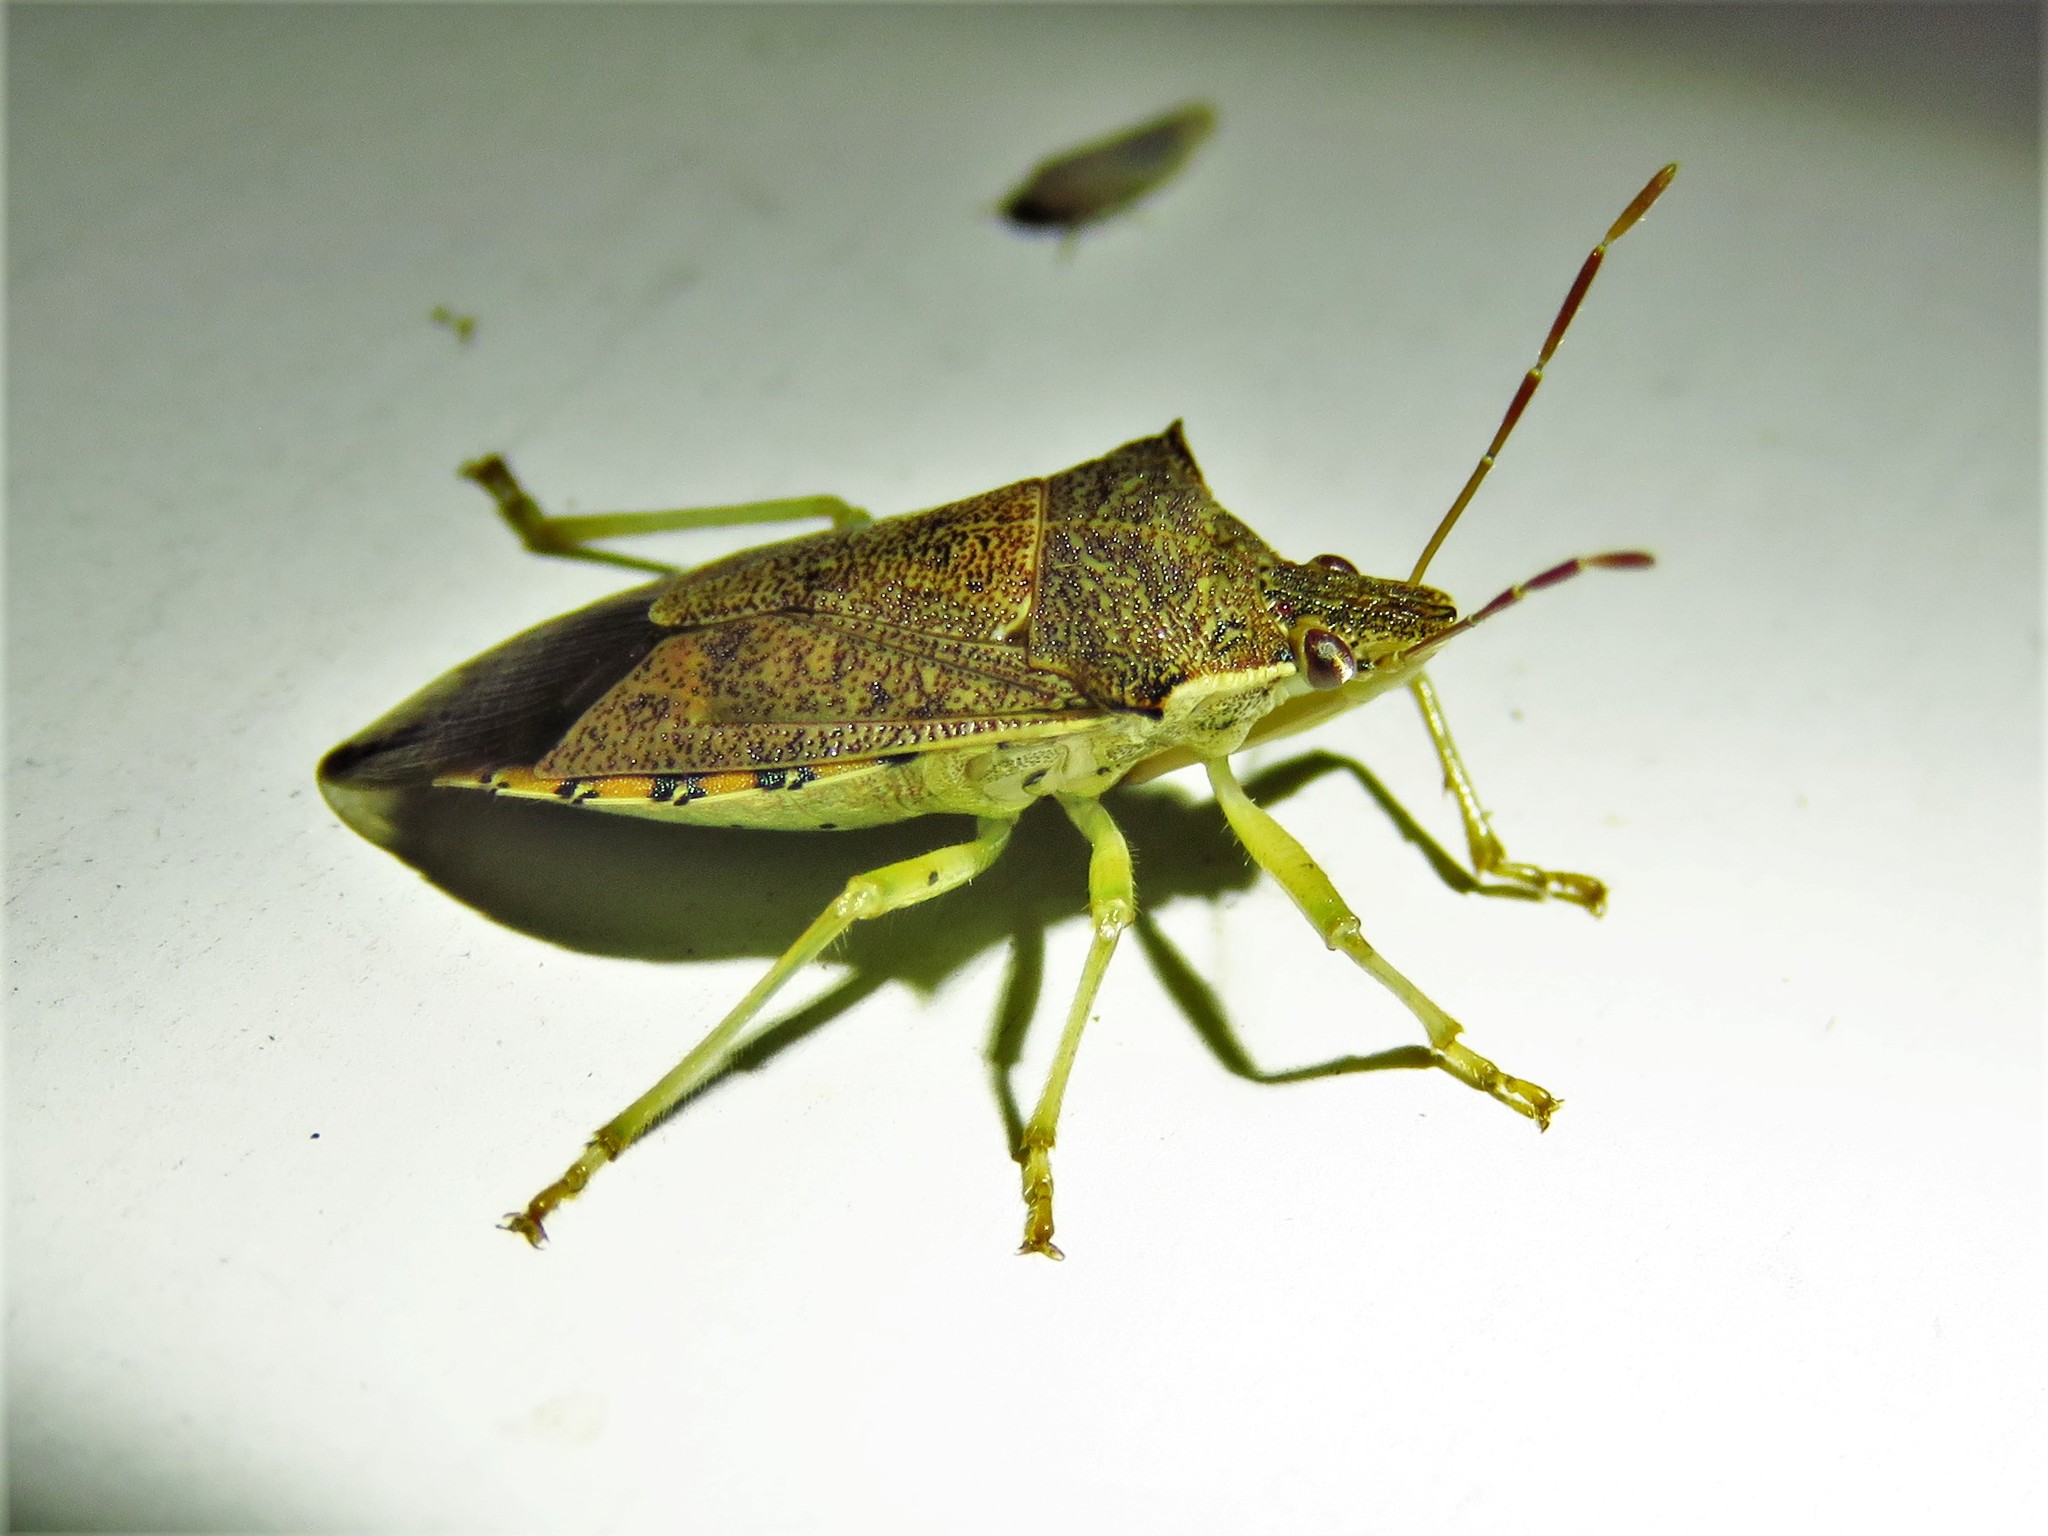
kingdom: Animalia
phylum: Arthropoda
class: Insecta
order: Hemiptera
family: Pentatomidae
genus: Podisus
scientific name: Podisus maculiventris
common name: Spined soldier bug
